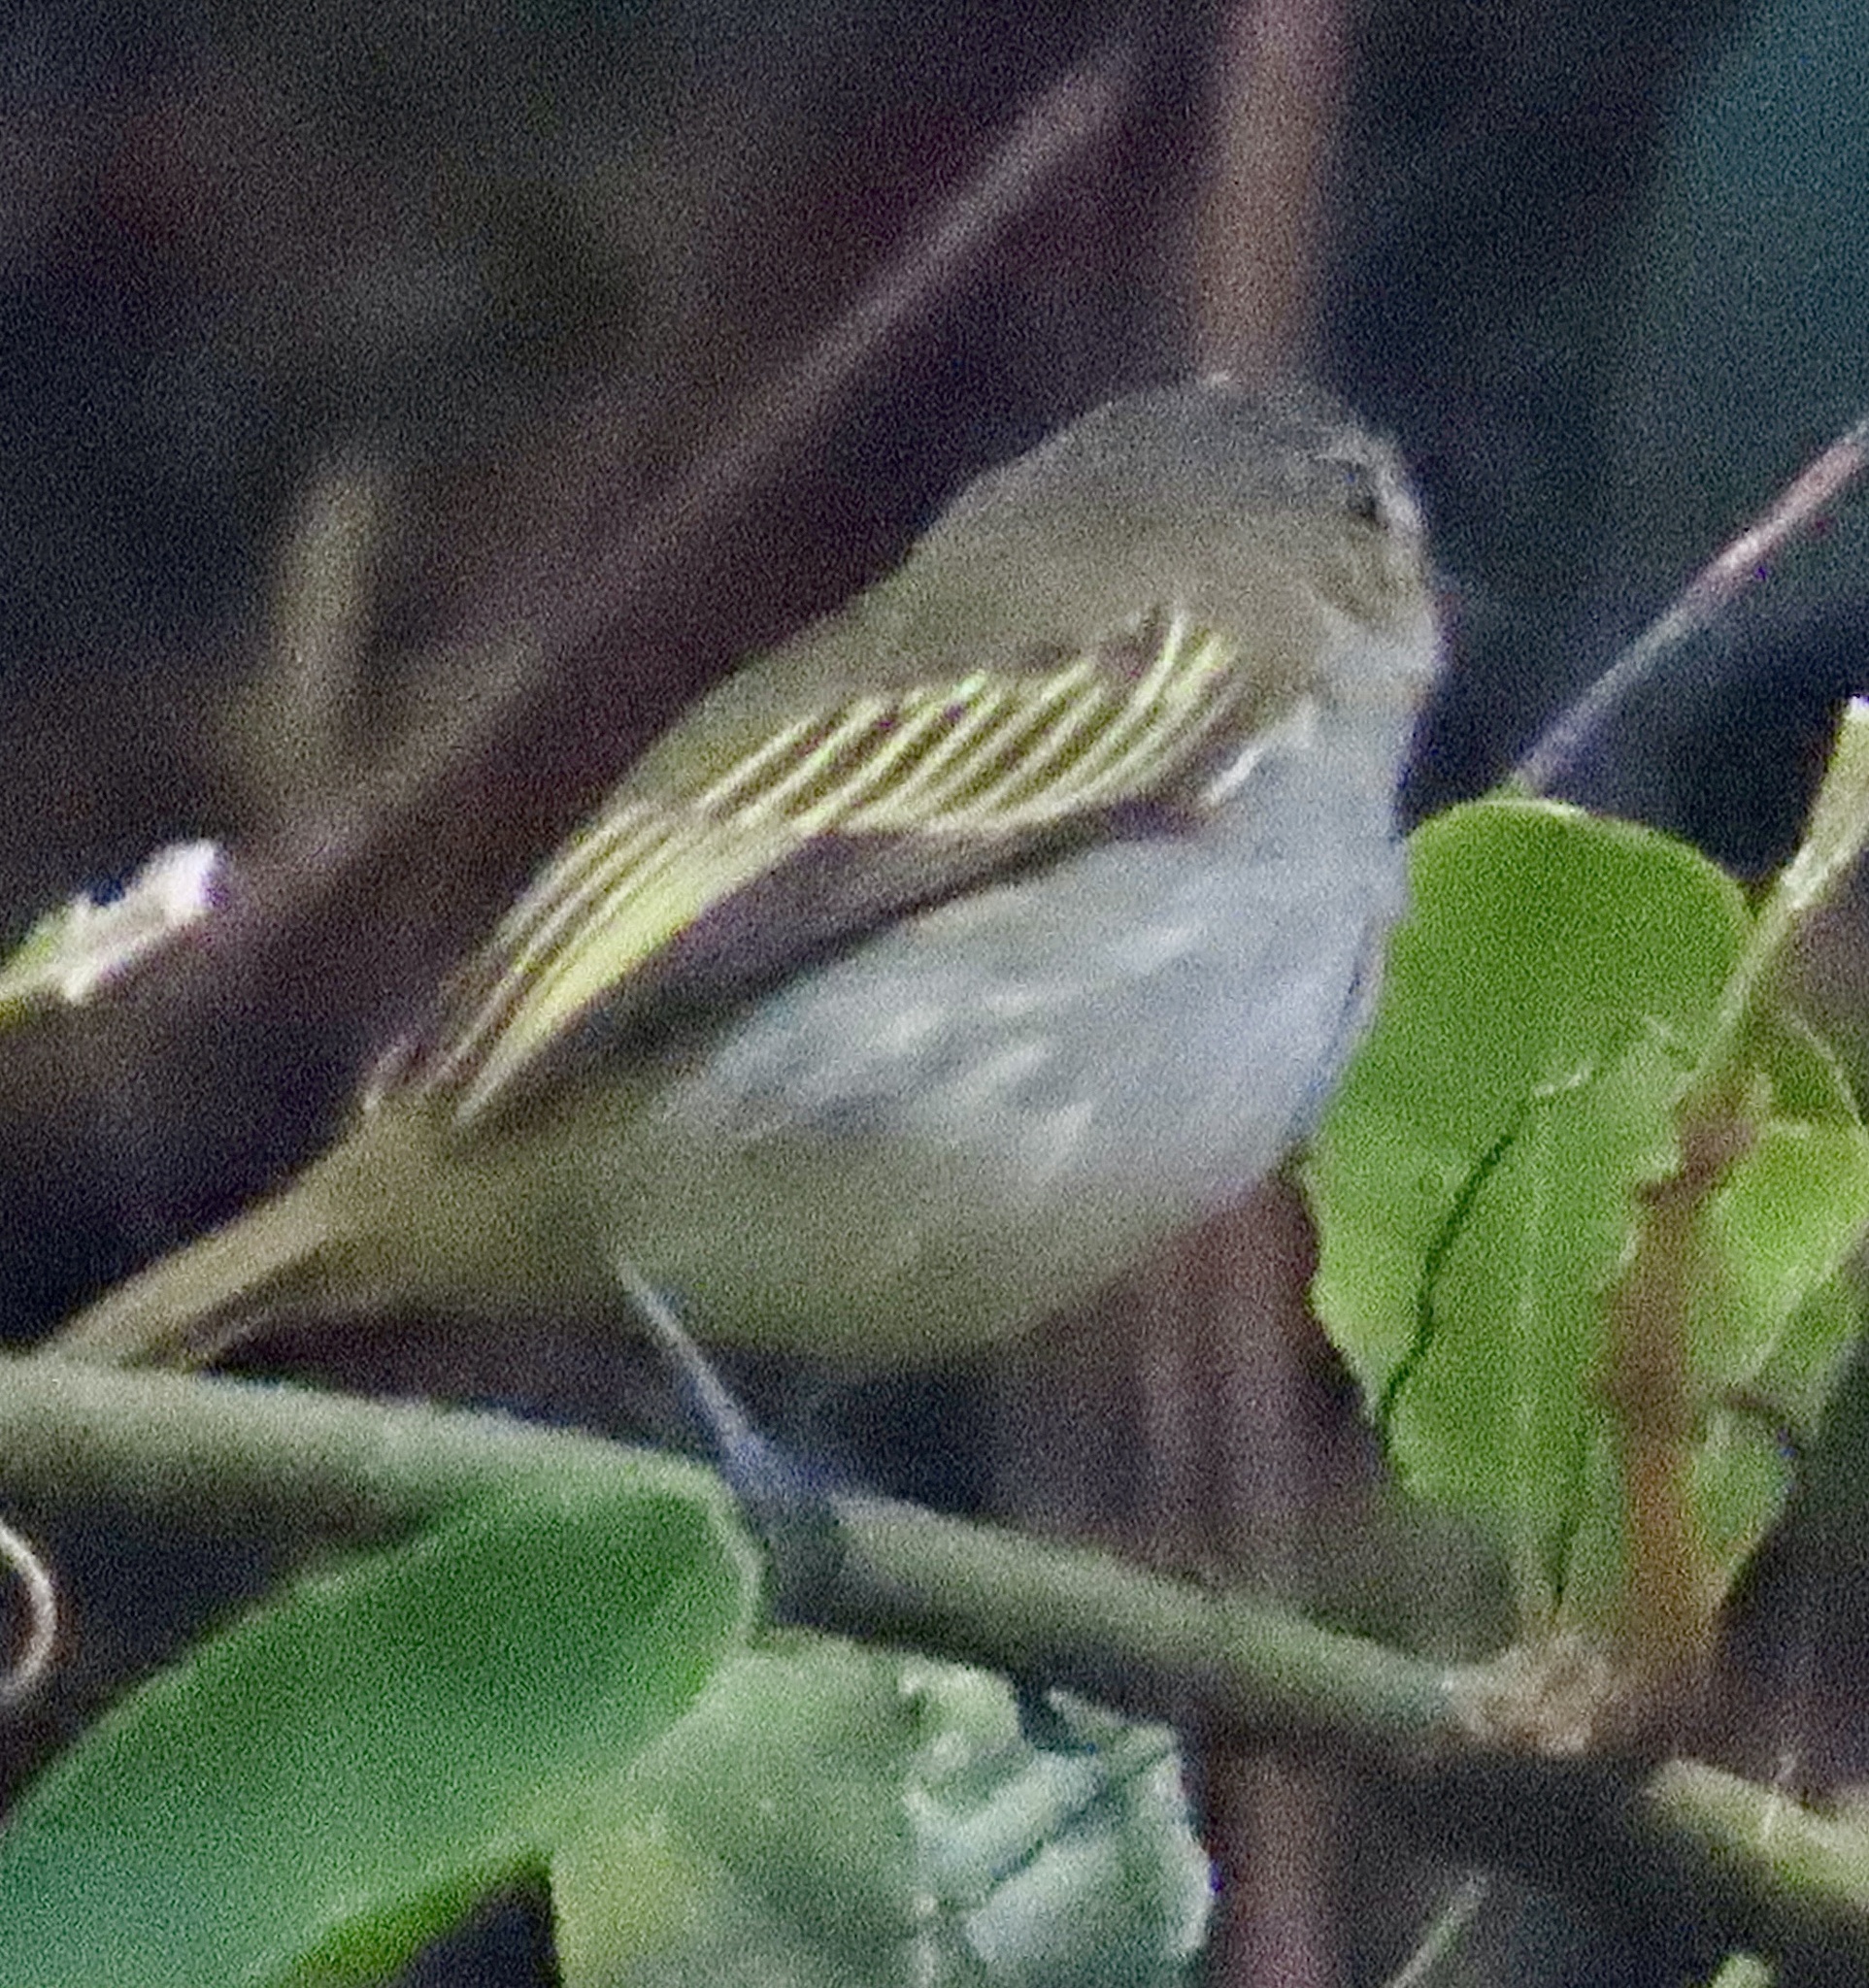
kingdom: Animalia
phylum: Chordata
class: Aves
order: Passeriformes
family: Tyrannidae
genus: Zimmerius
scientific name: Zimmerius vilissimus
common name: Paltry tyrannulet
